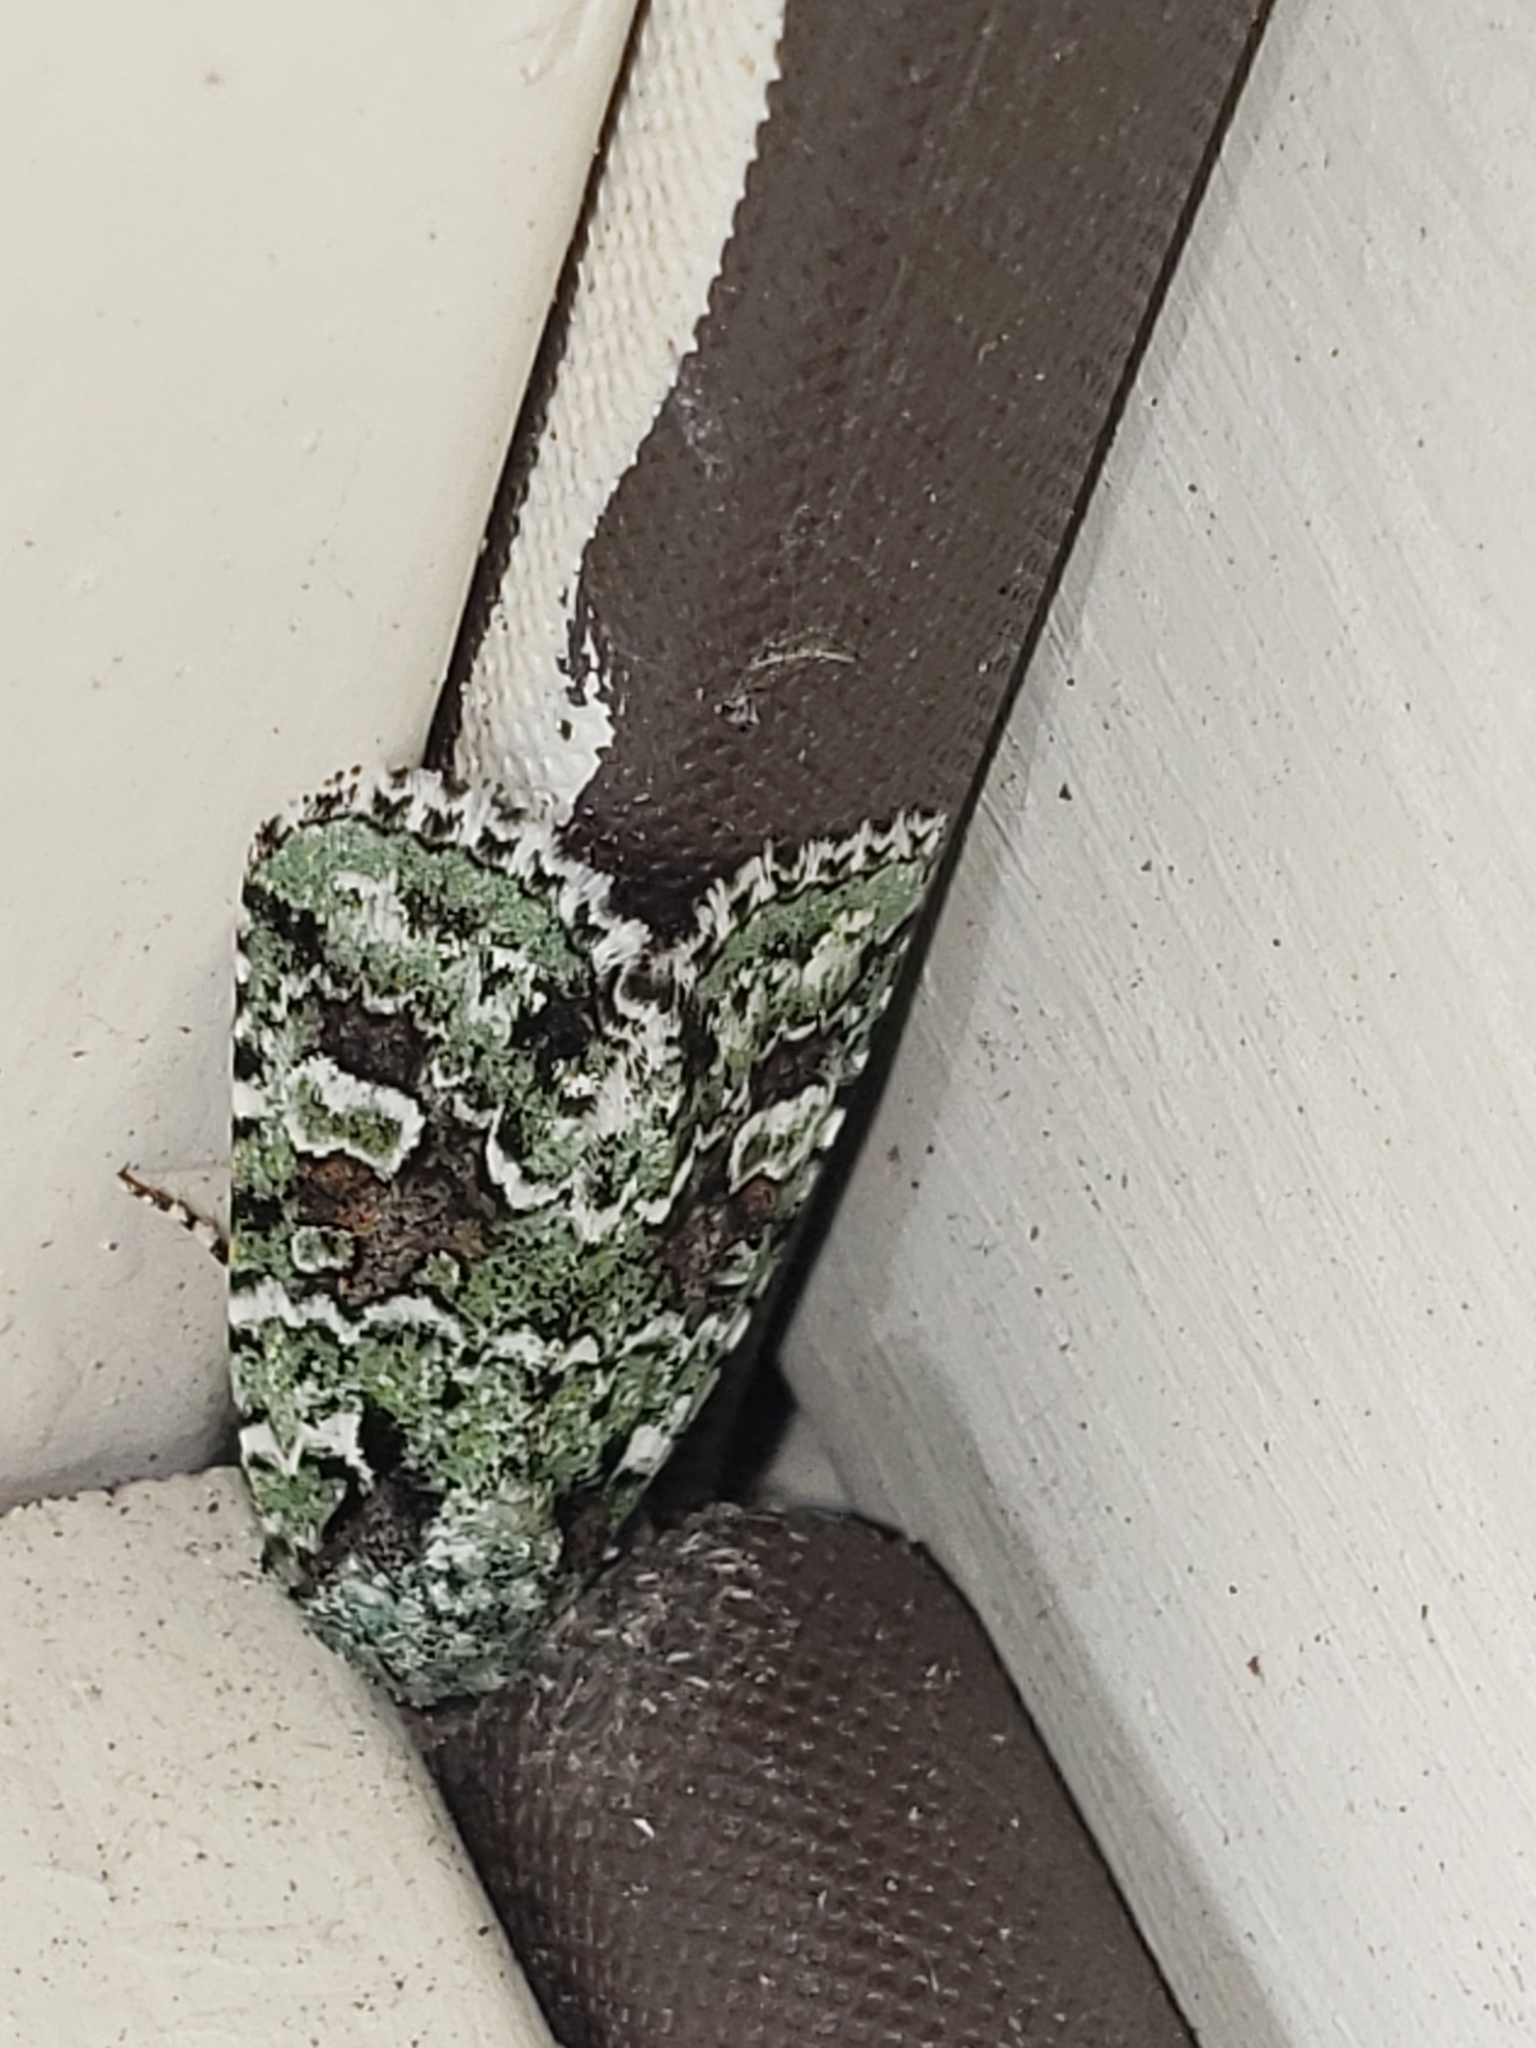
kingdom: Animalia
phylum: Arthropoda
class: Insecta
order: Lepidoptera
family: Noctuidae
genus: Lacinipolia
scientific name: Lacinipolia laudabilis
